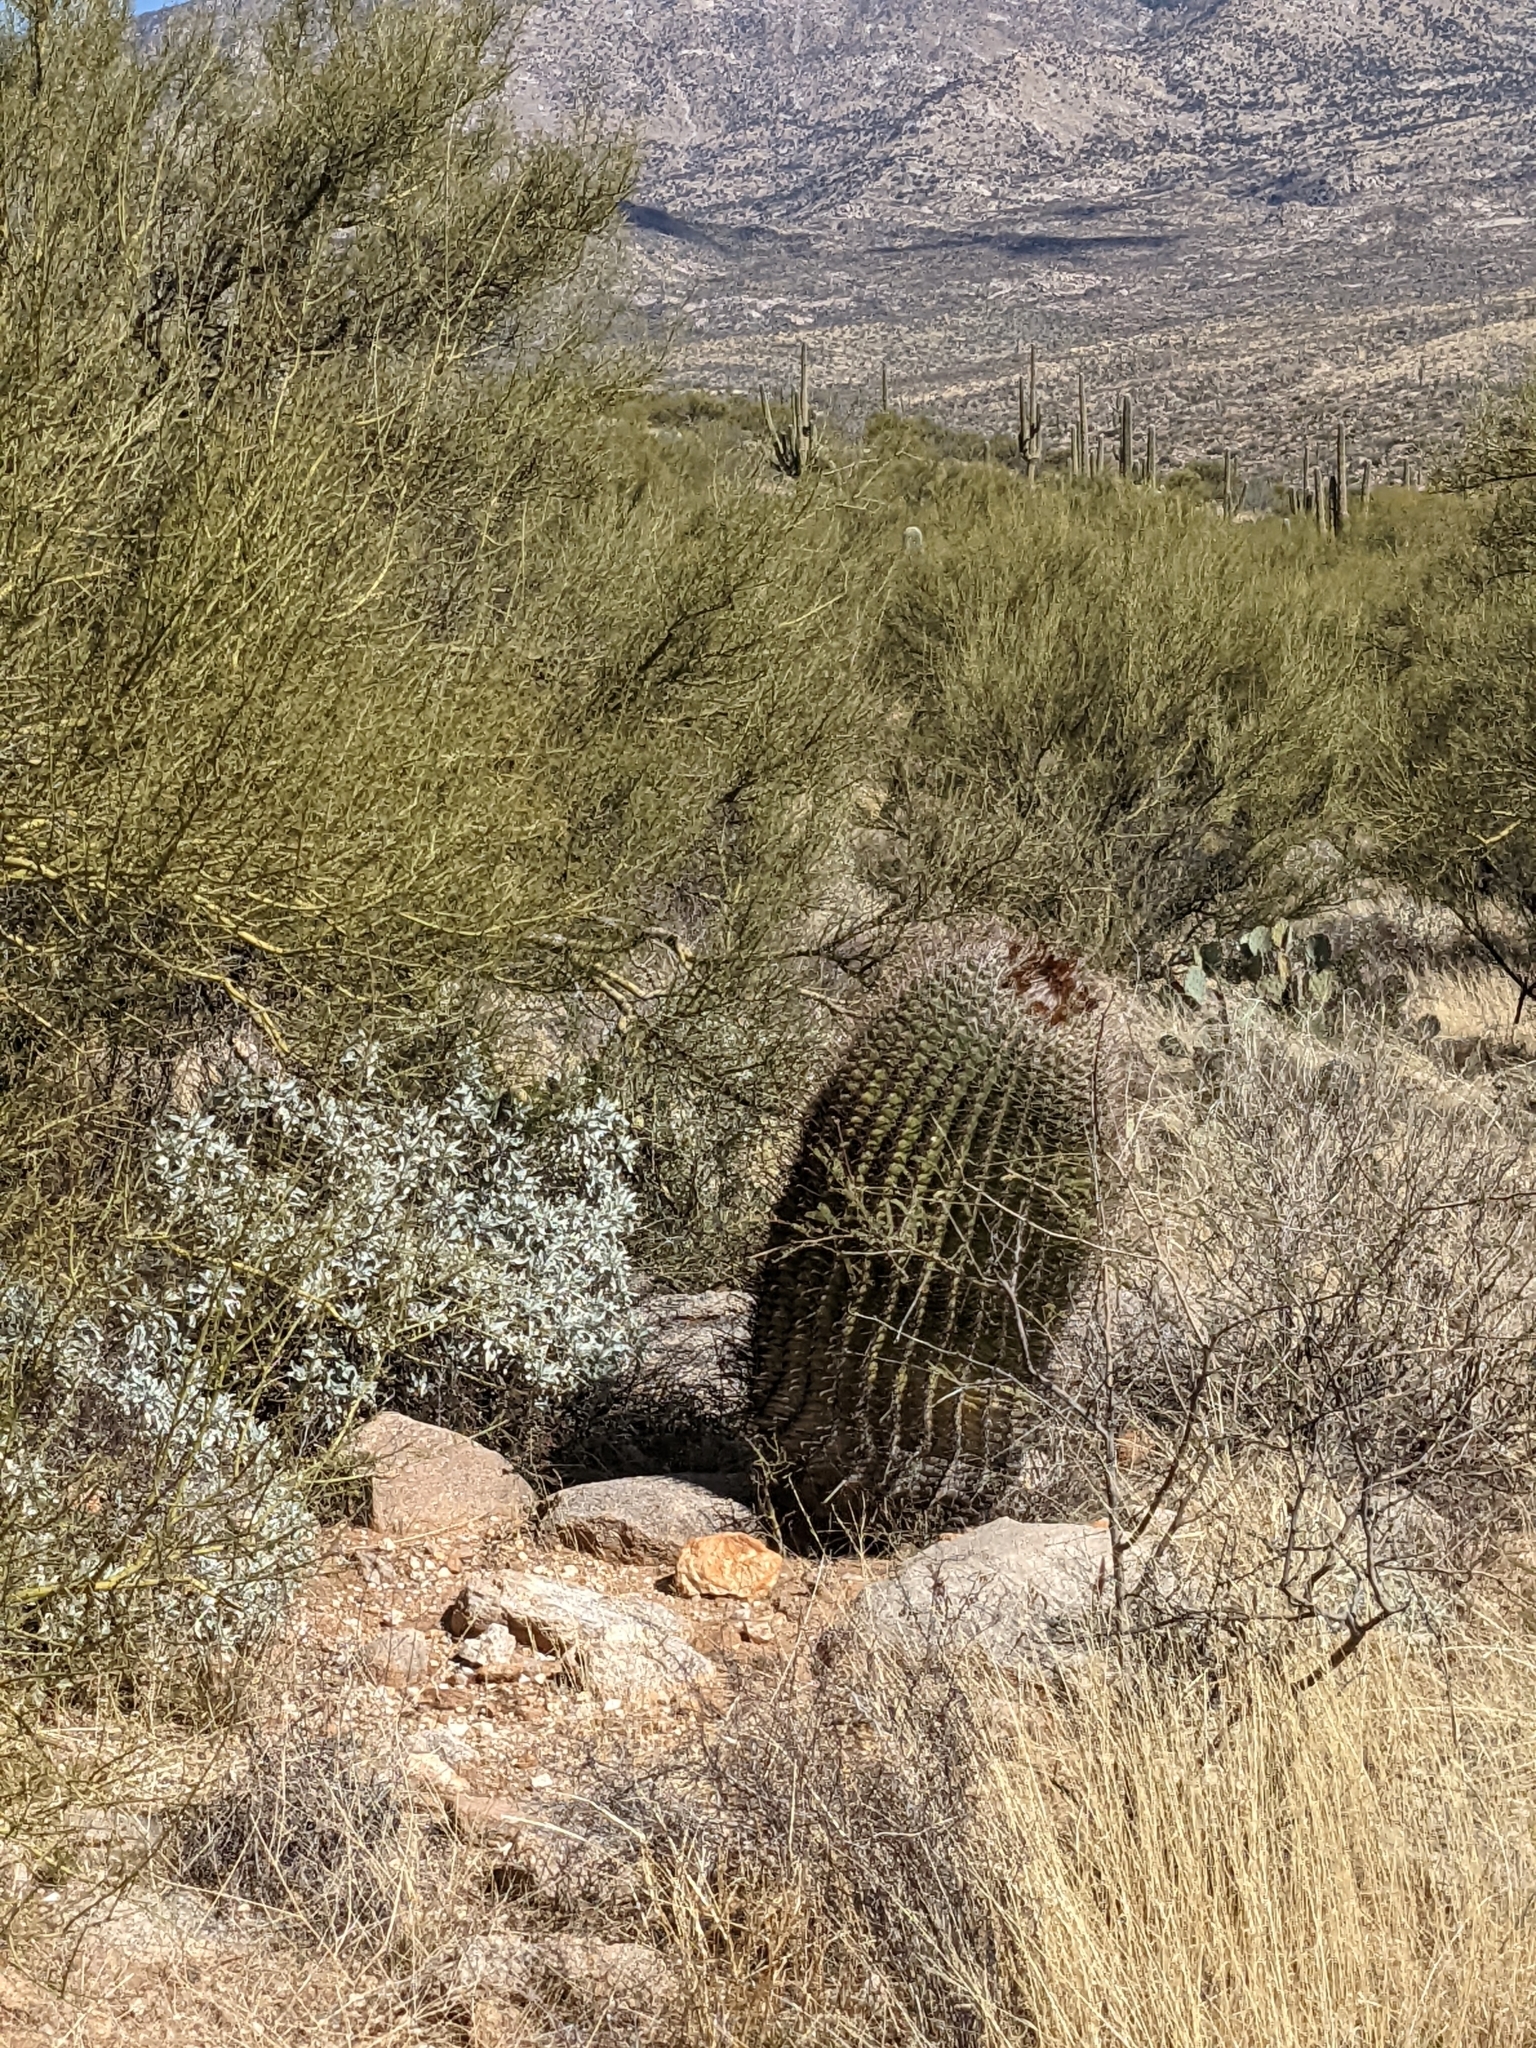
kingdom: Plantae
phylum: Tracheophyta
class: Magnoliopsida
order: Caryophyllales
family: Cactaceae
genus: Ferocactus
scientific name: Ferocactus wislizeni
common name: Candy barrel cactus
